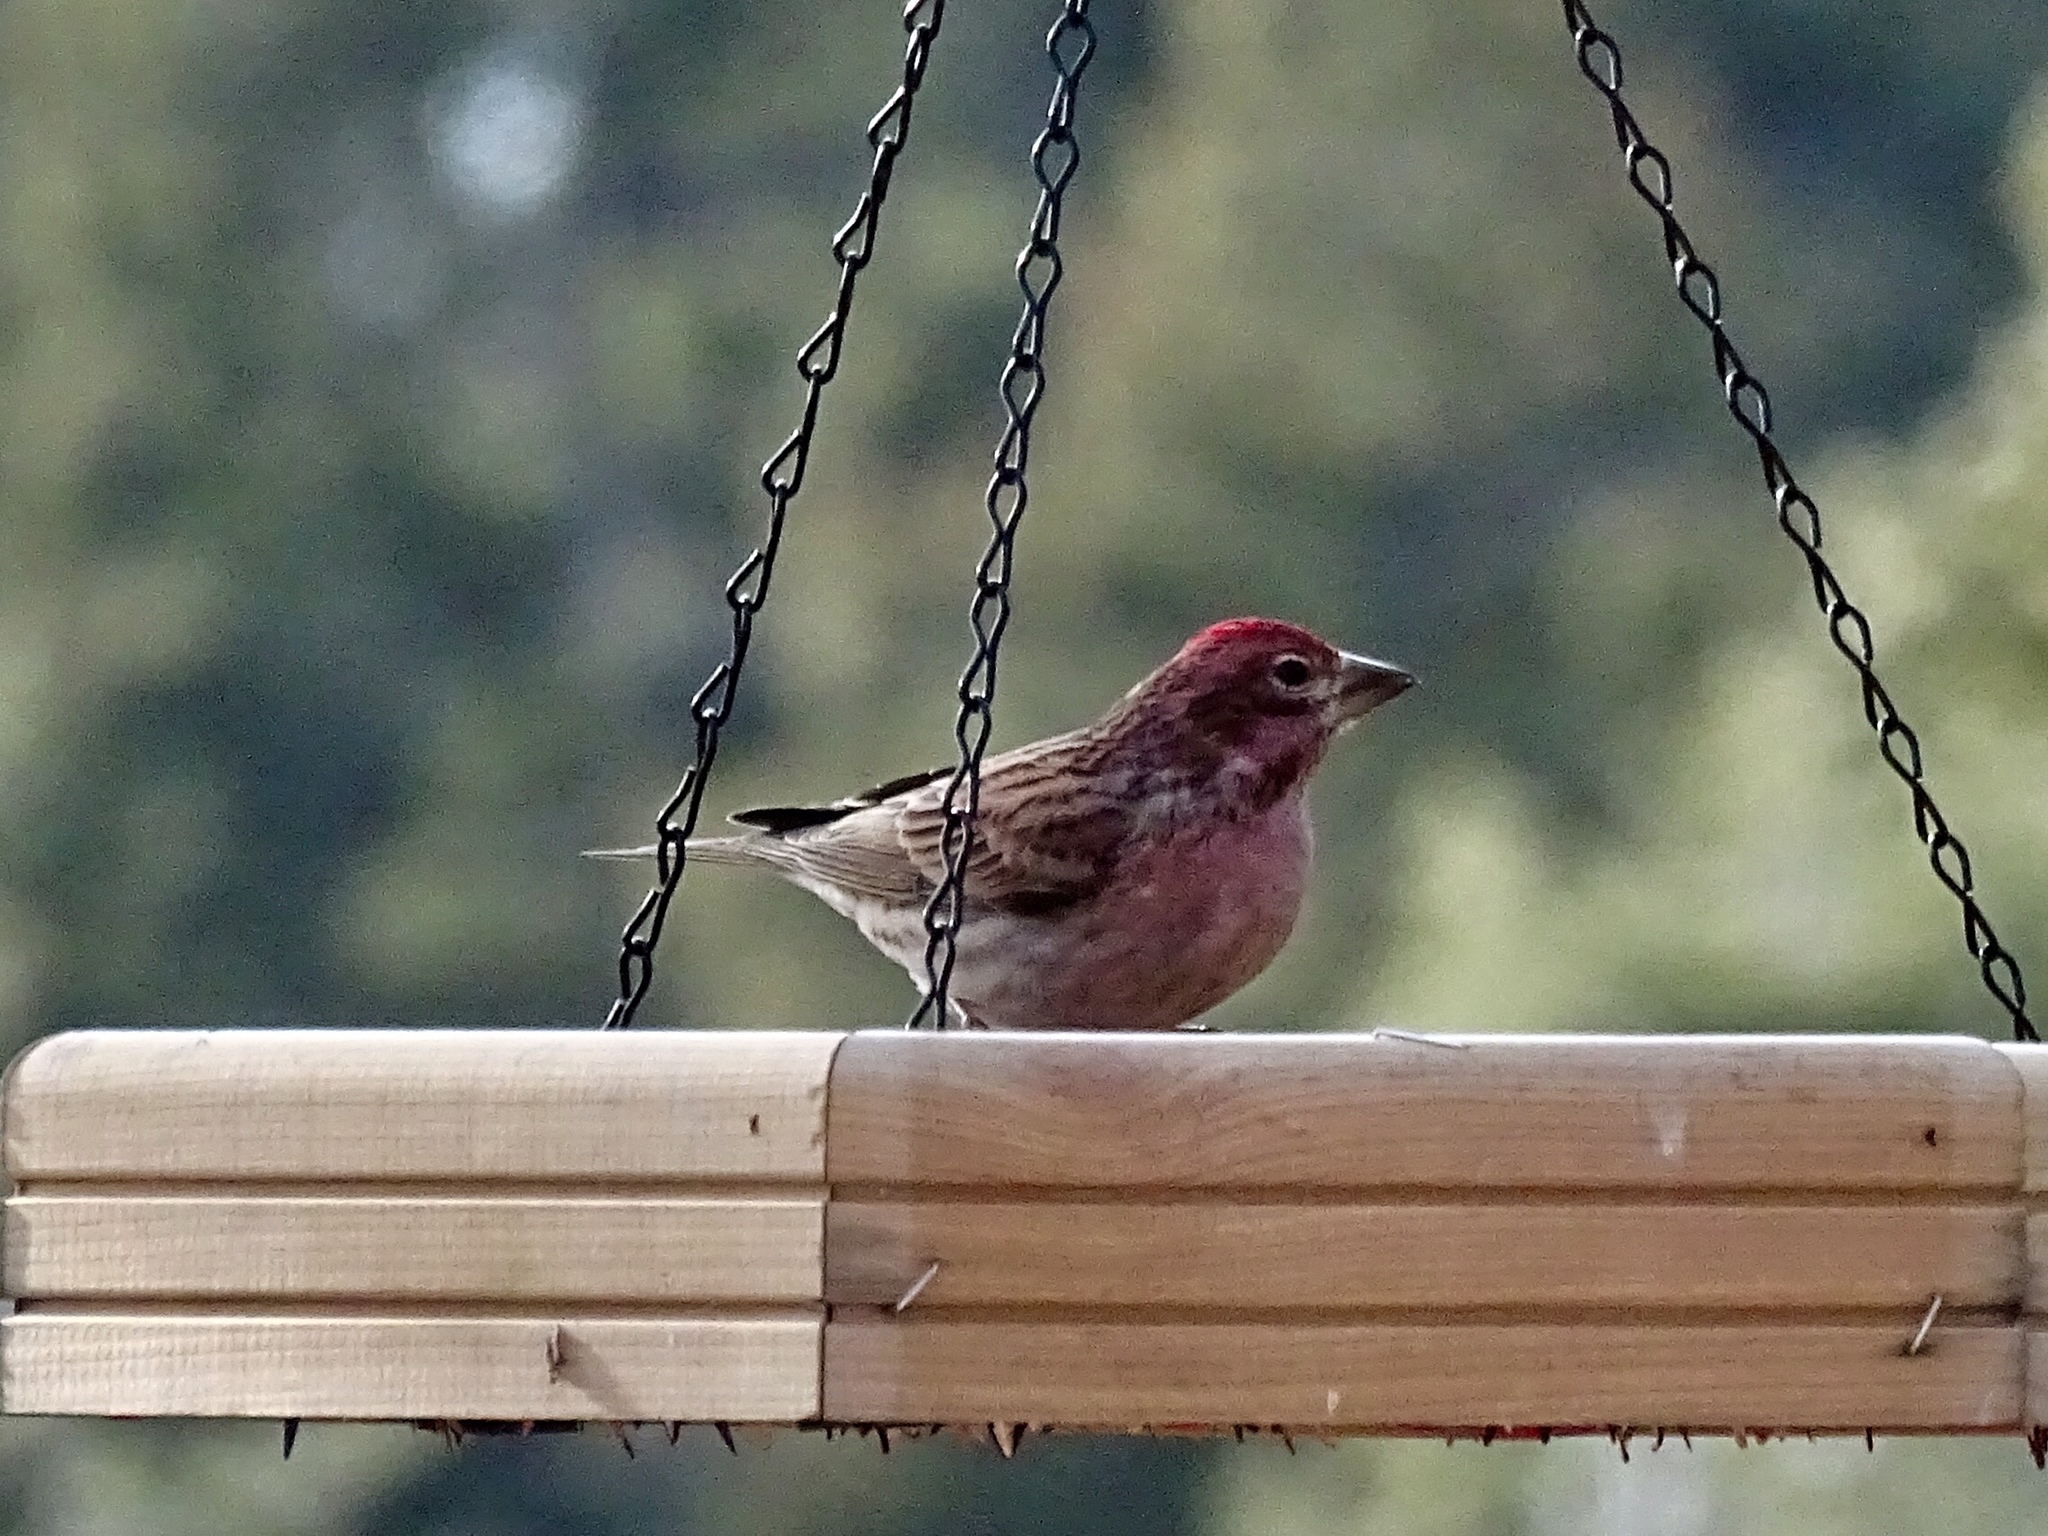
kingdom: Animalia
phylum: Chordata
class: Aves
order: Passeriformes
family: Fringillidae
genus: Haemorhous
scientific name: Haemorhous cassinii
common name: Cassin's finch
